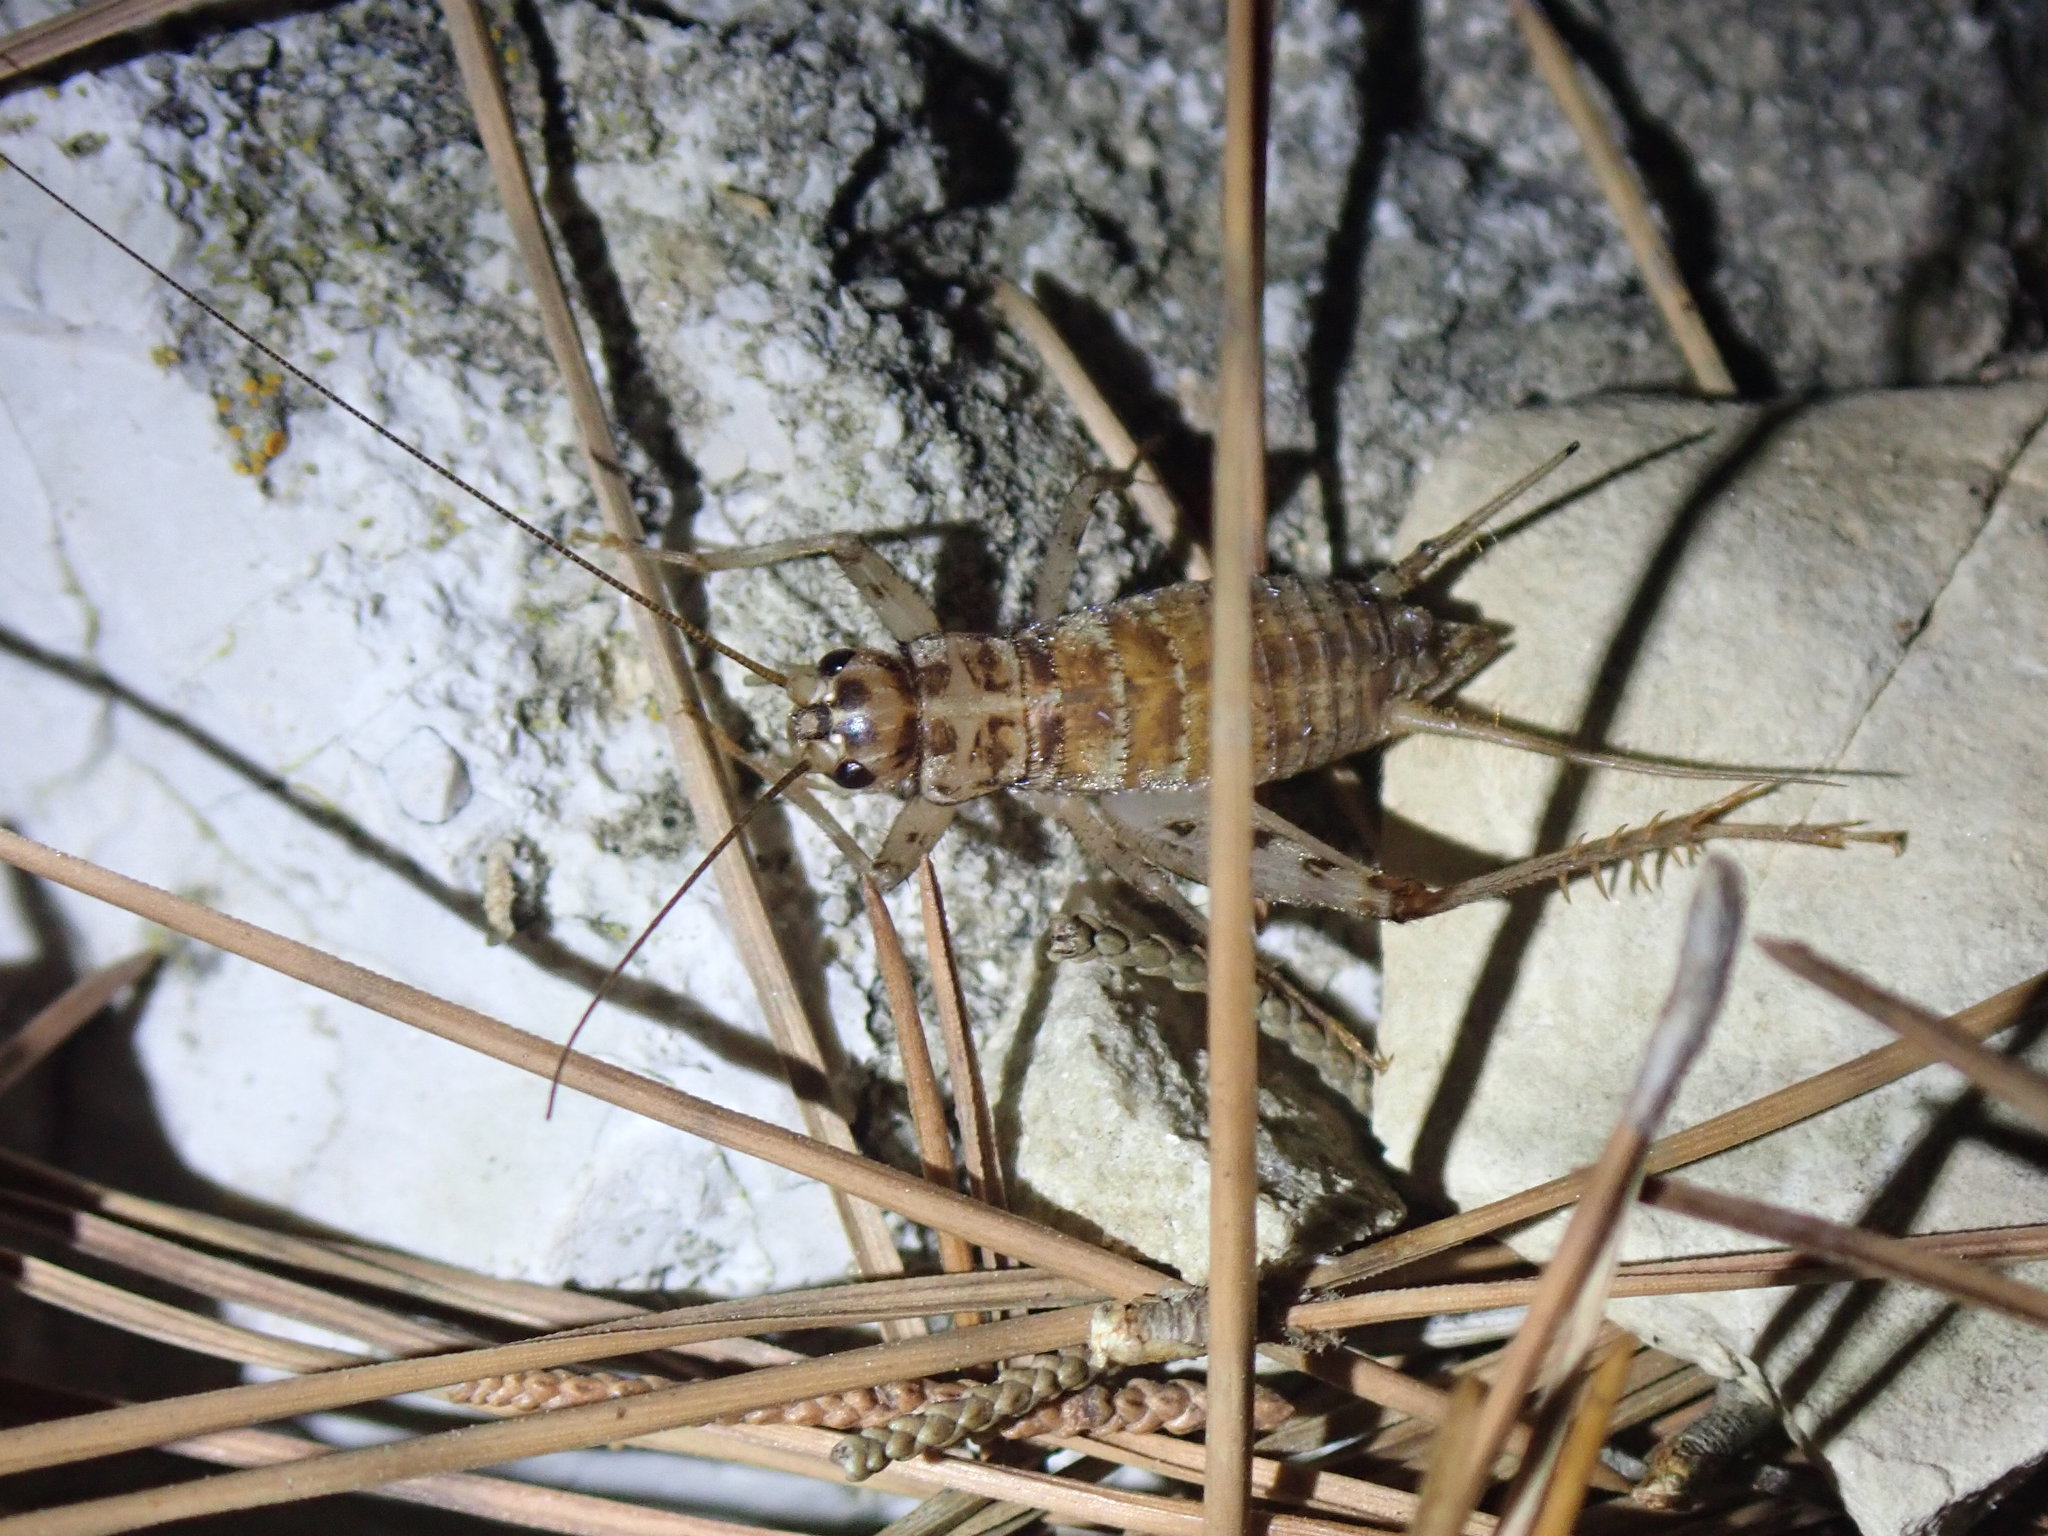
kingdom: Animalia
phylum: Arthropoda
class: Insecta
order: Orthoptera
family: Gryllidae
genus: Gryllomorpha
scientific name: Gryllomorpha dalmatina
